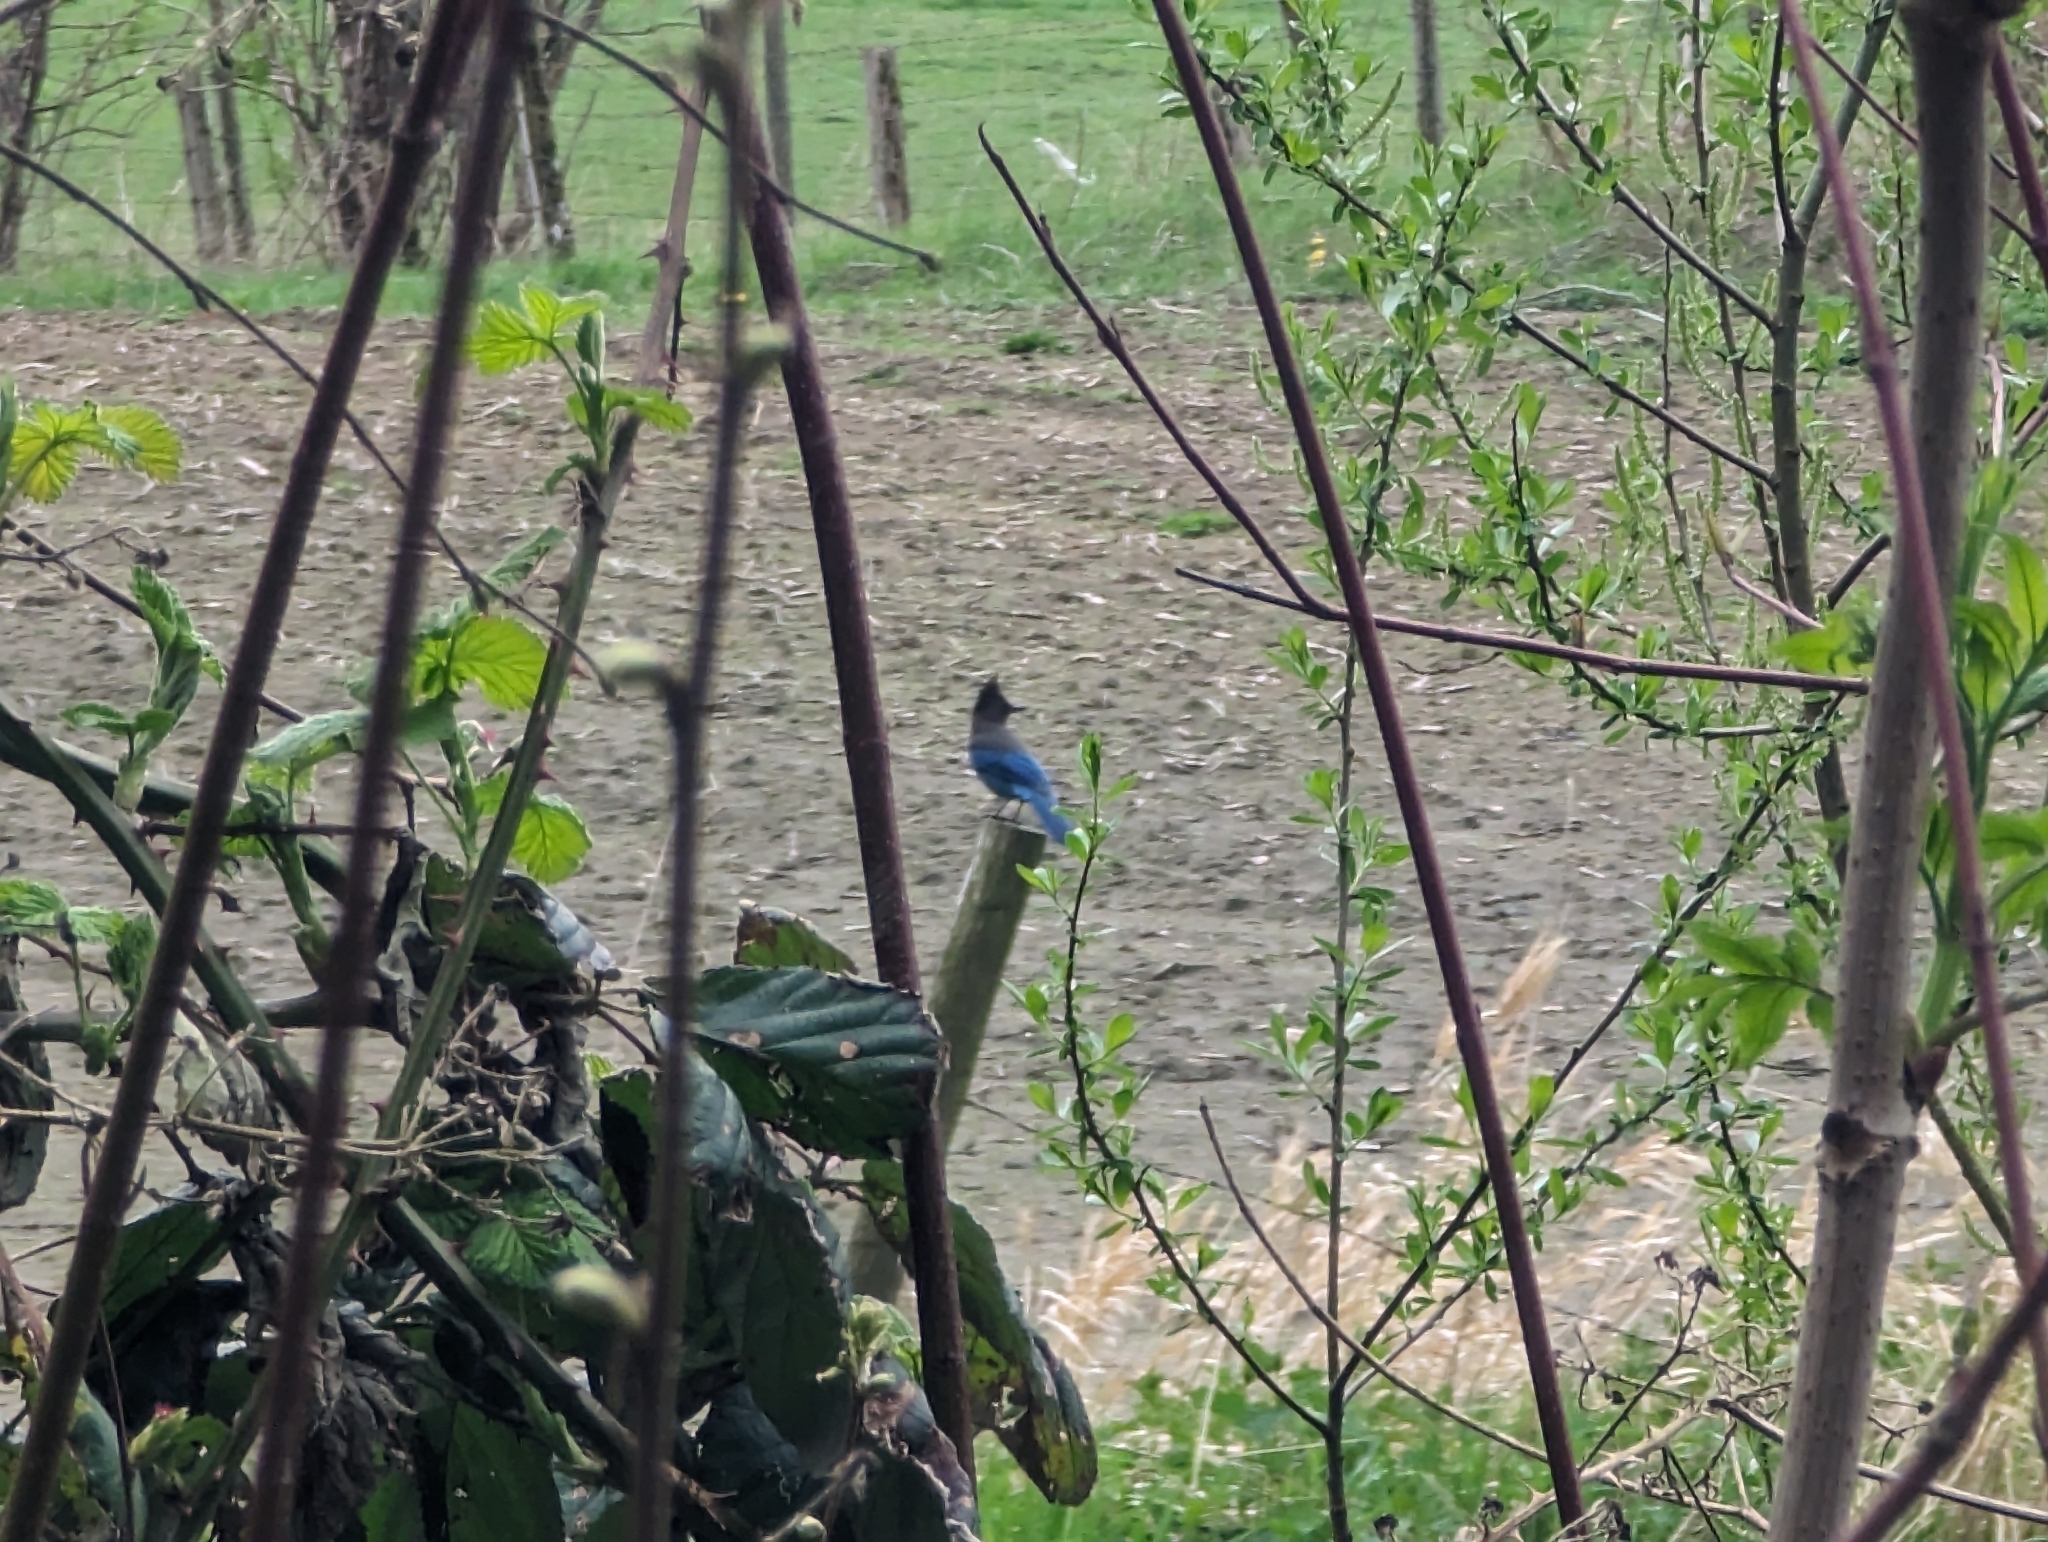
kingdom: Animalia
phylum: Chordata
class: Aves
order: Passeriformes
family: Corvidae
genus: Cyanocitta
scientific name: Cyanocitta stelleri
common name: Steller's jay
